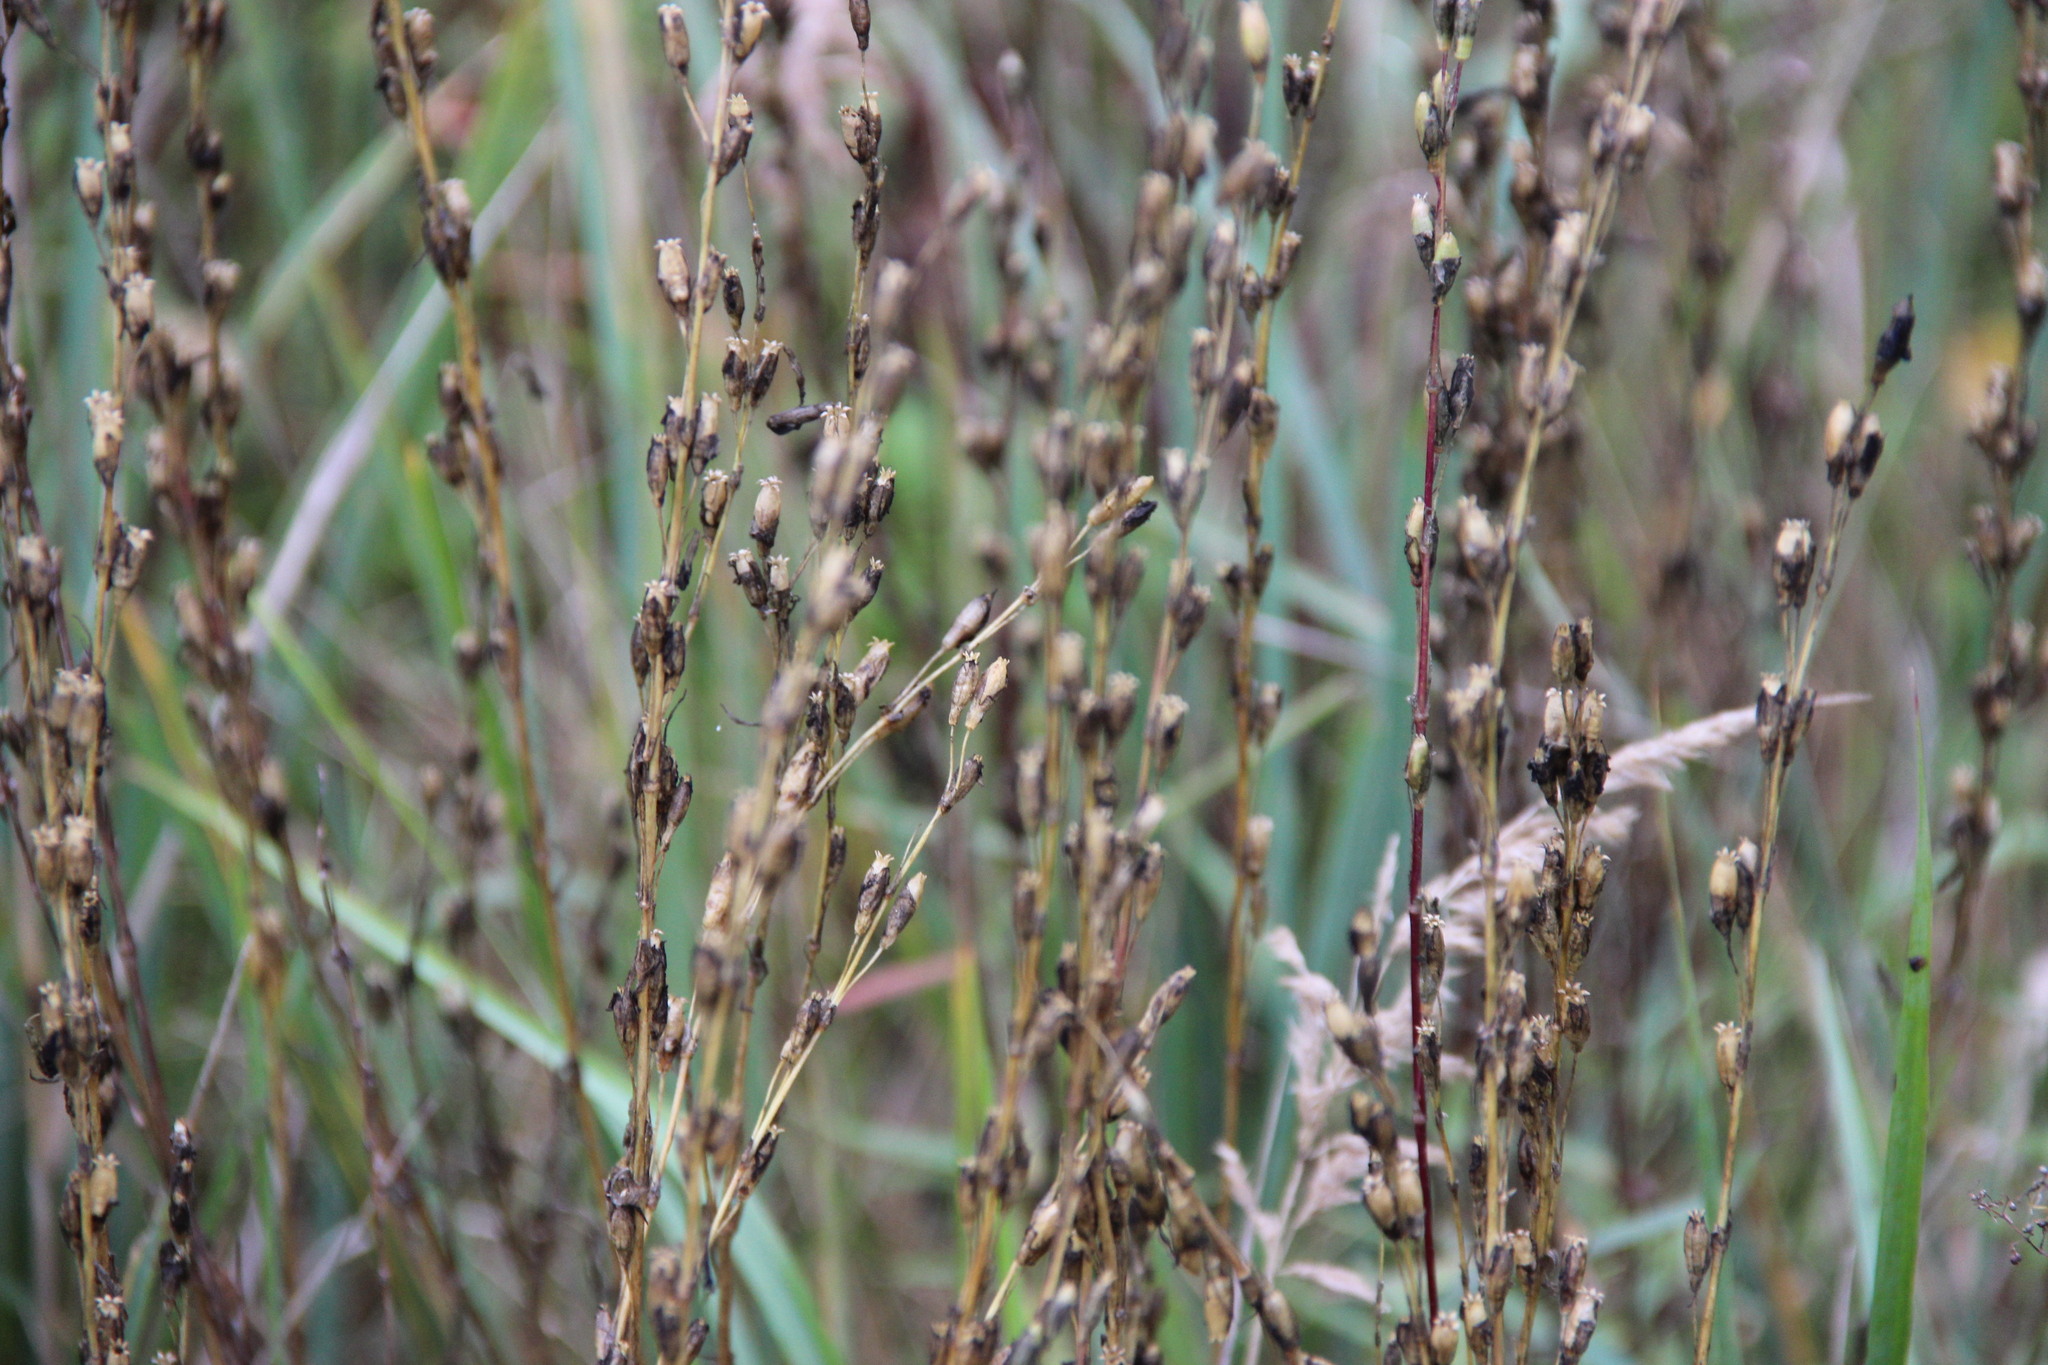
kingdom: Plantae
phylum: Tracheophyta
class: Magnoliopsida
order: Caryophyllales
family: Caryophyllaceae
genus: Silene
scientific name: Silene tatarica
